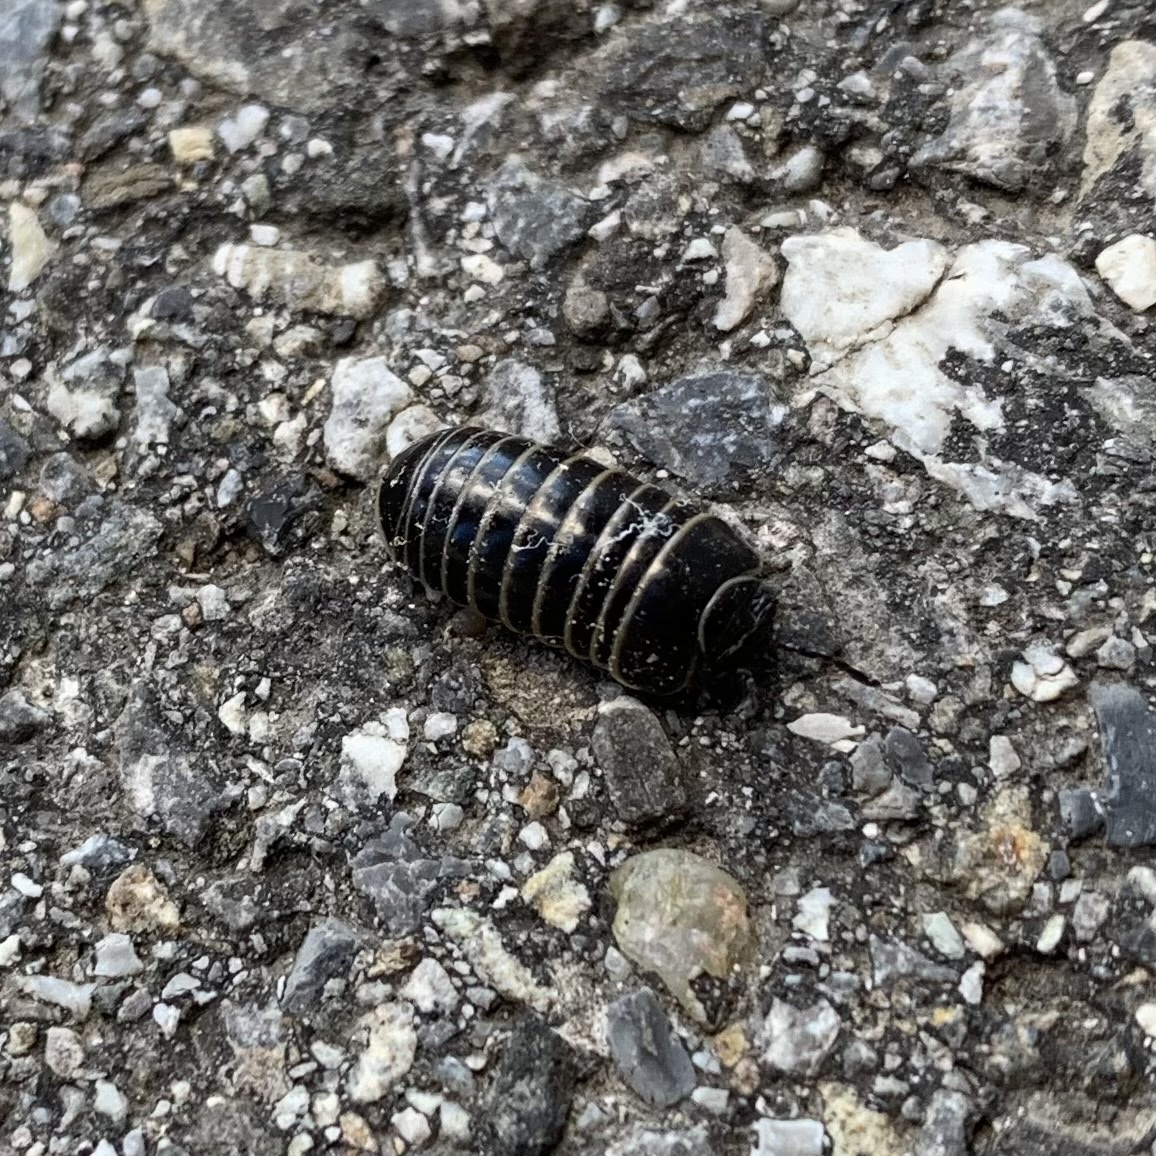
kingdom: Animalia
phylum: Arthropoda
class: Diplopoda
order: Glomerida
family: Glomeridae
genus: Glomeris
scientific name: Glomeris marginata
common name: Bordered pill millipede
